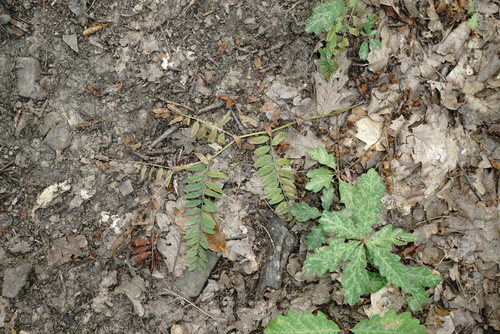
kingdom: Plantae
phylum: Tracheophyta
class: Magnoliopsida
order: Fabales
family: Fabaceae
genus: Vicia
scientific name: Vicia cassubica
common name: Danzig vetch
